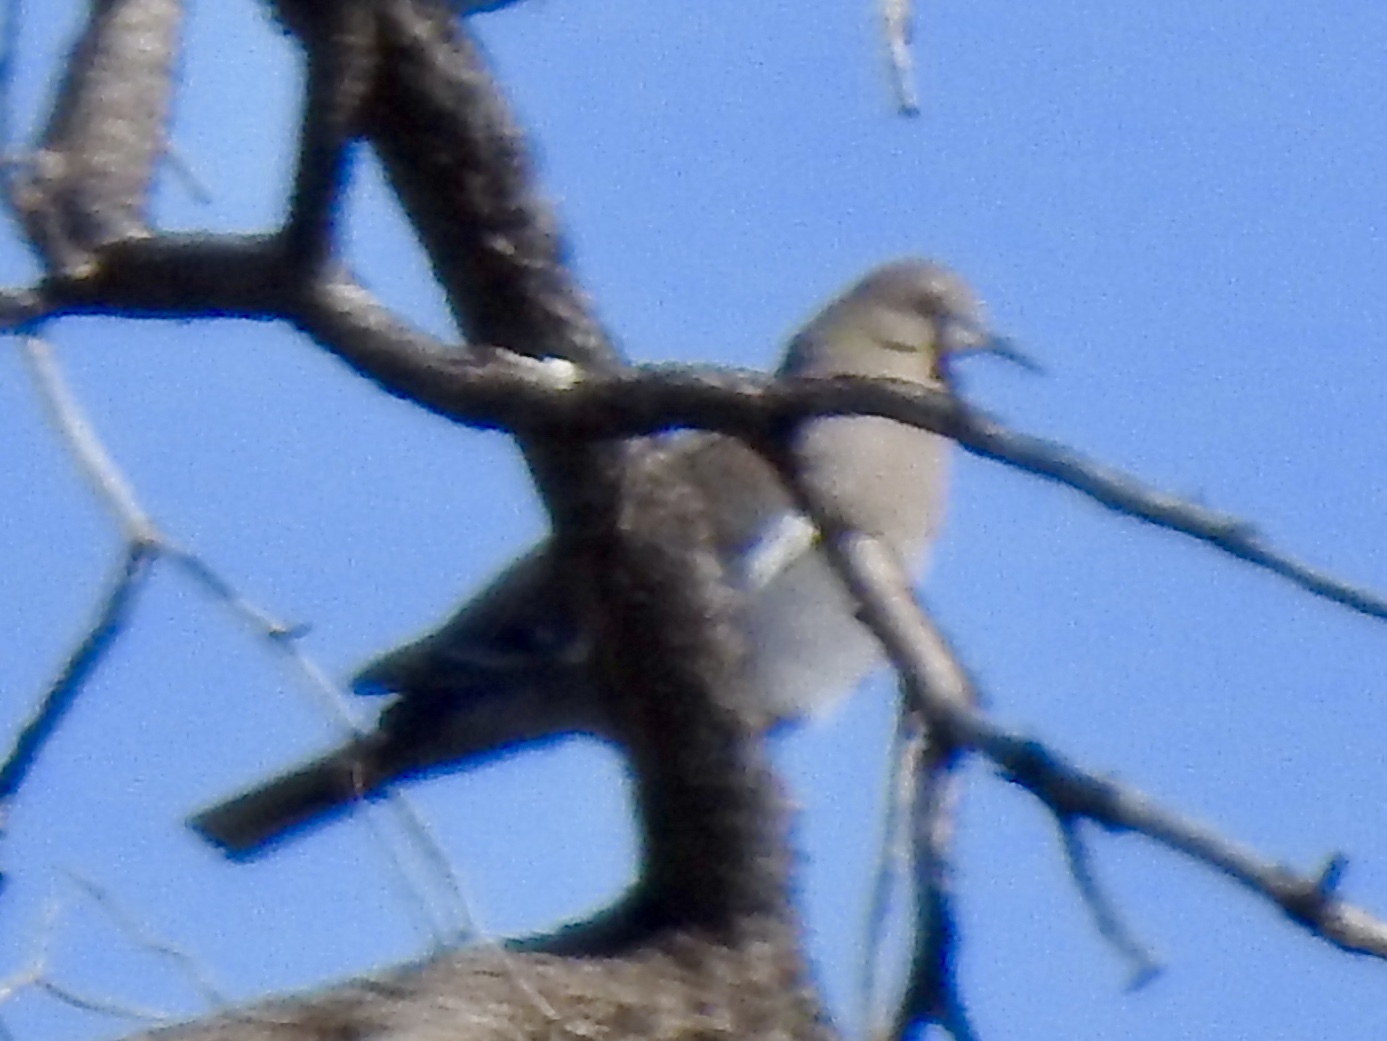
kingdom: Animalia
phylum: Chordata
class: Aves
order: Columbiformes
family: Columbidae
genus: Zenaida
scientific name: Zenaida asiatica
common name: White-winged dove
